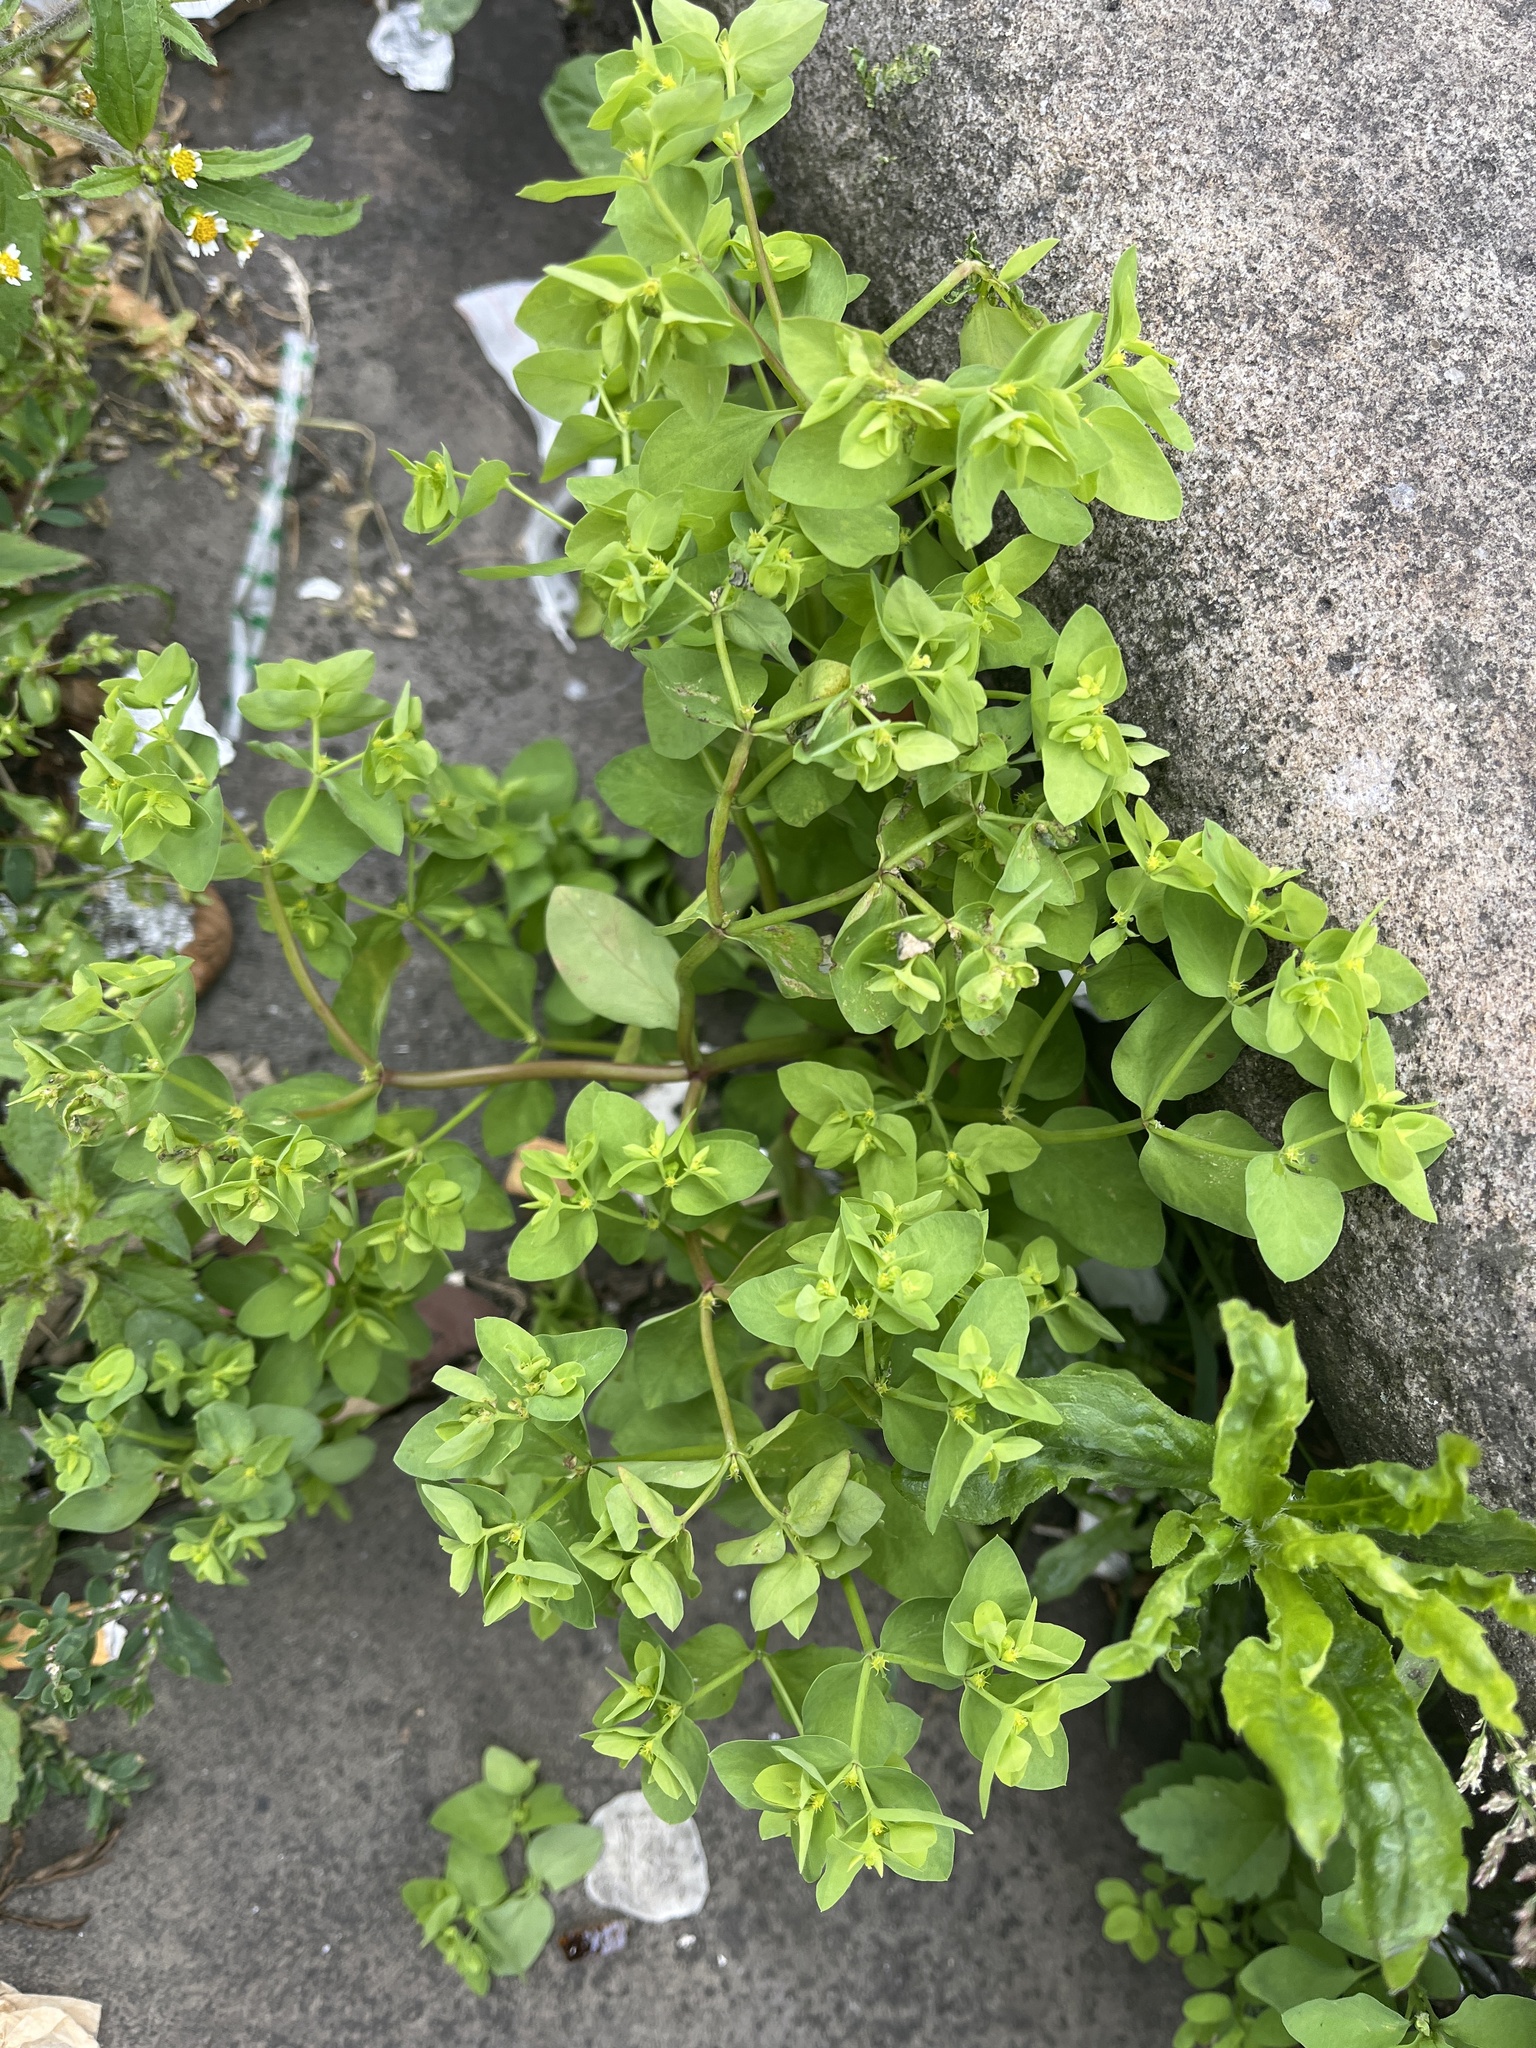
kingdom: Plantae
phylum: Tracheophyta
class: Magnoliopsida
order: Malpighiales
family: Euphorbiaceae
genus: Euphorbia
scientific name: Euphorbia peplus
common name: Petty spurge
